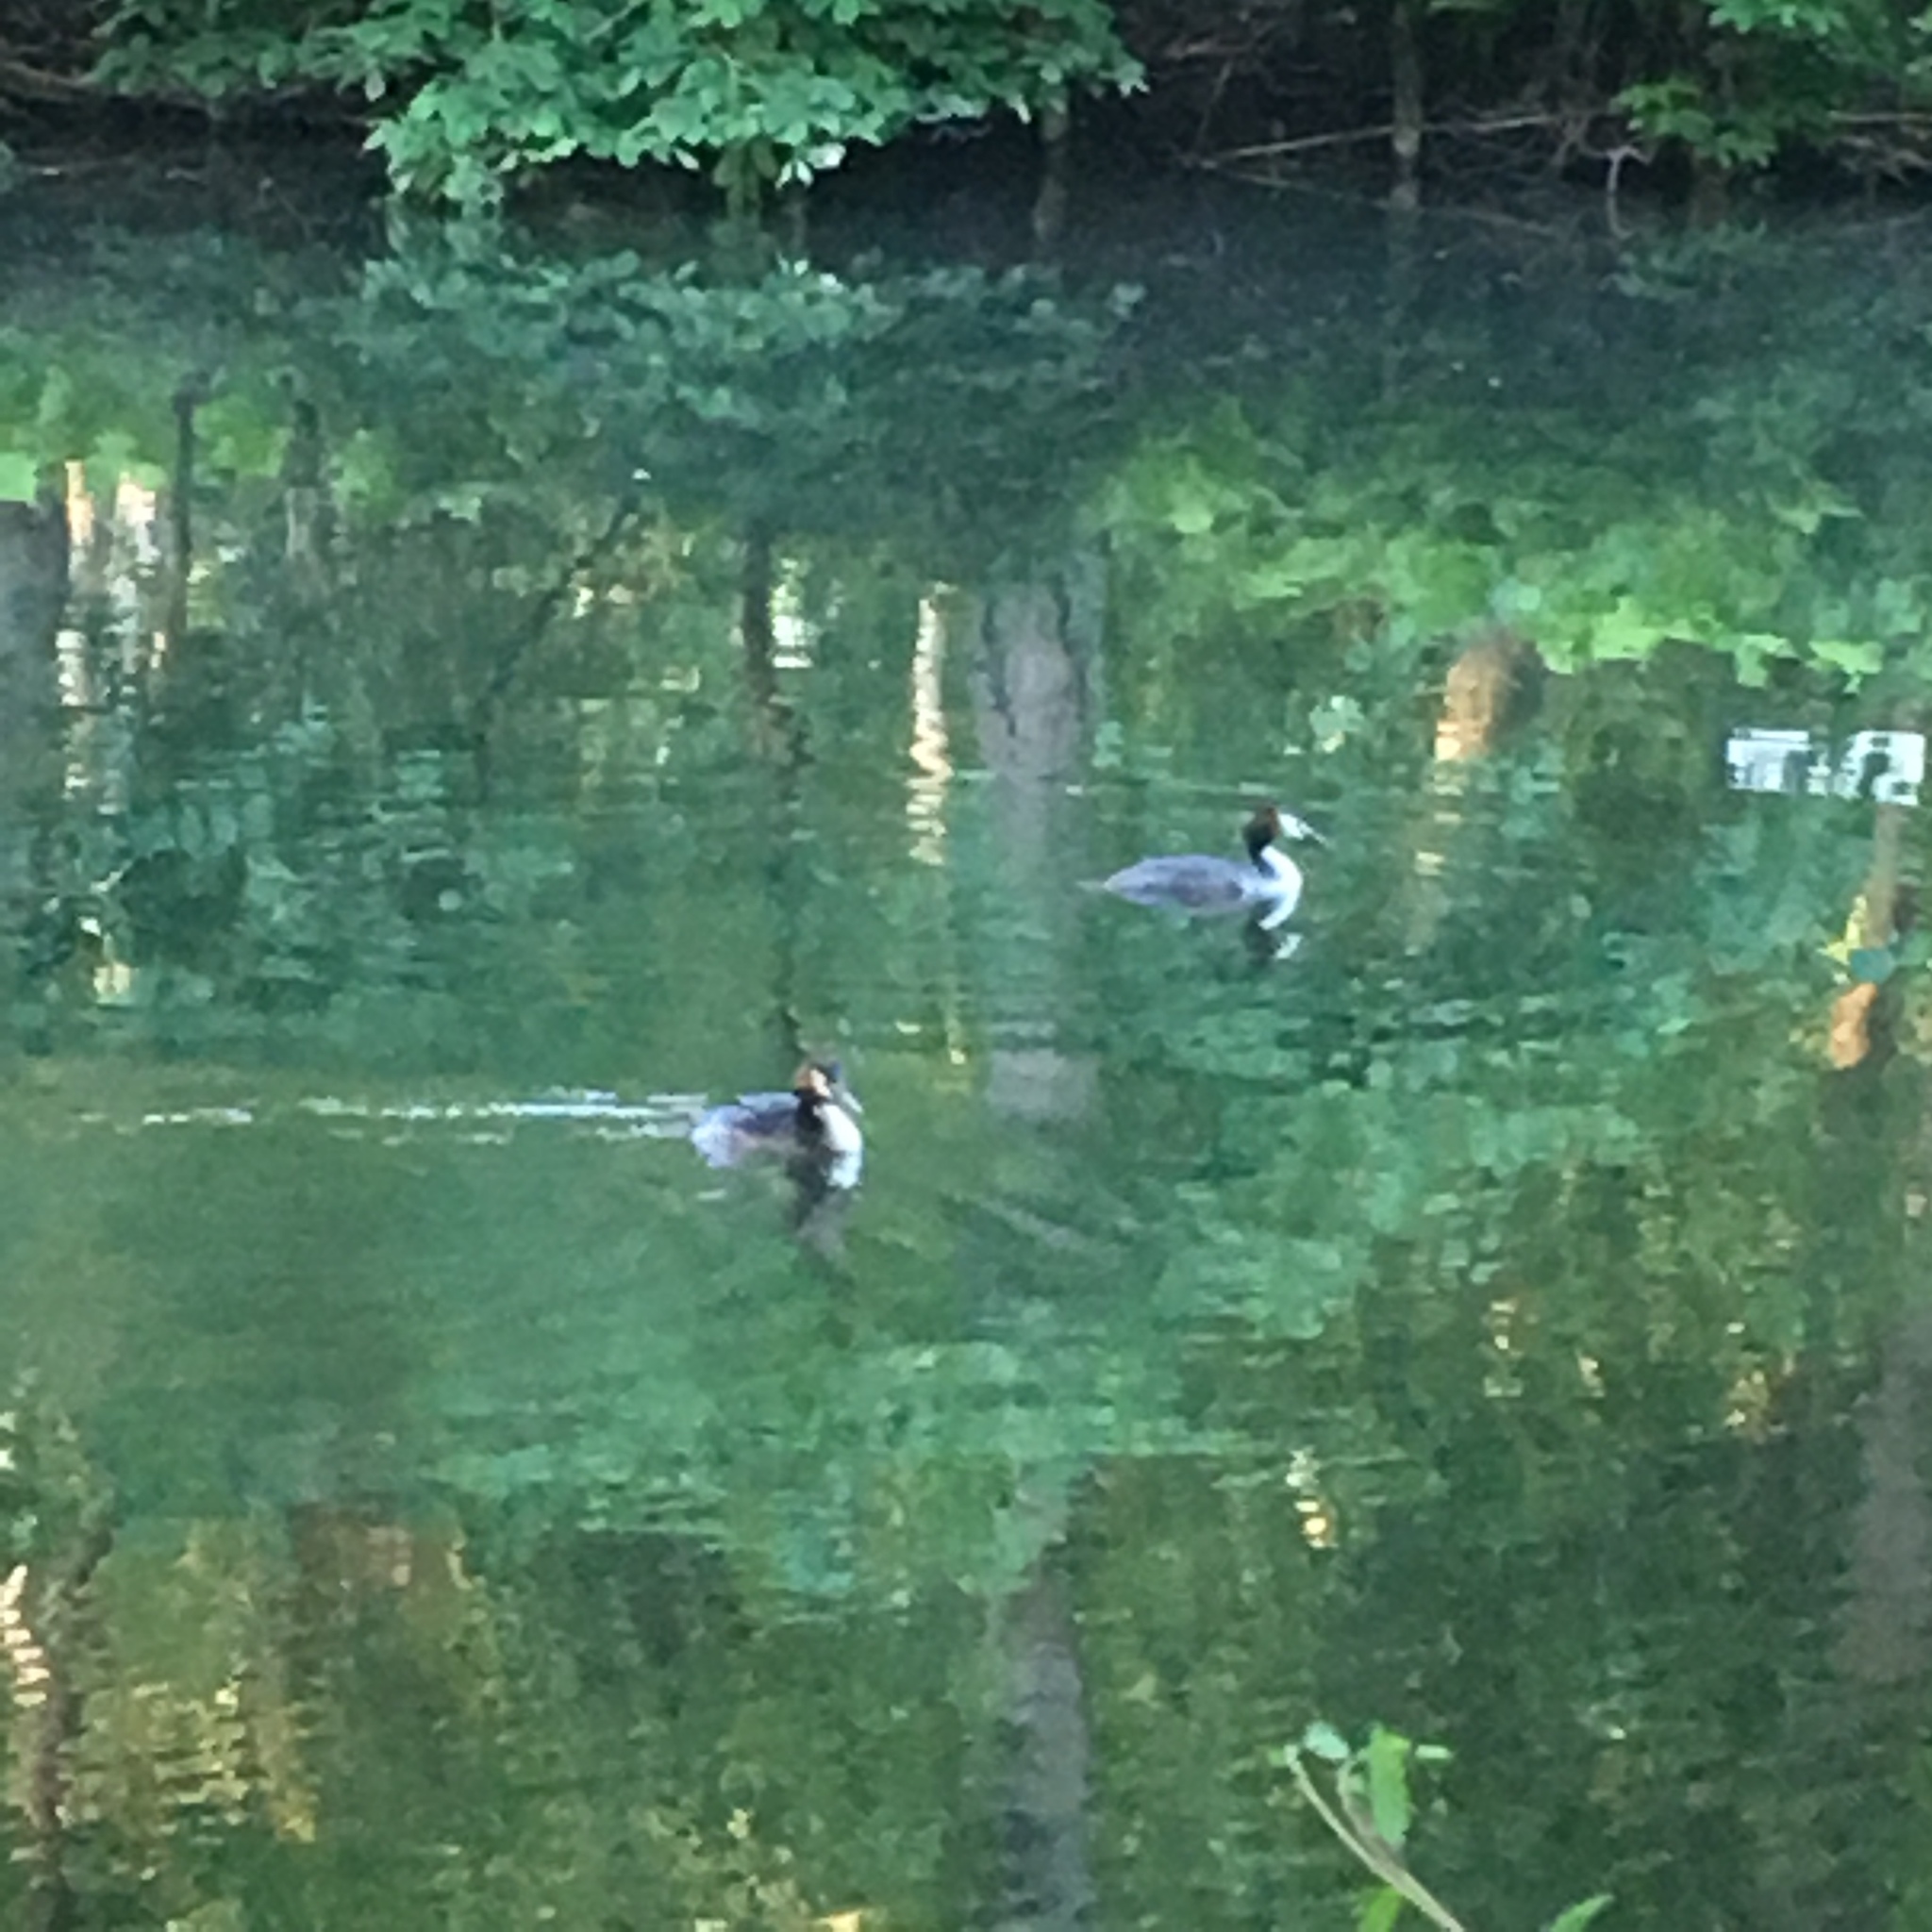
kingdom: Animalia
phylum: Chordata
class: Aves
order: Podicipediformes
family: Podicipedidae
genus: Podiceps
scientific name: Podiceps cristatus
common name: Great crested grebe
